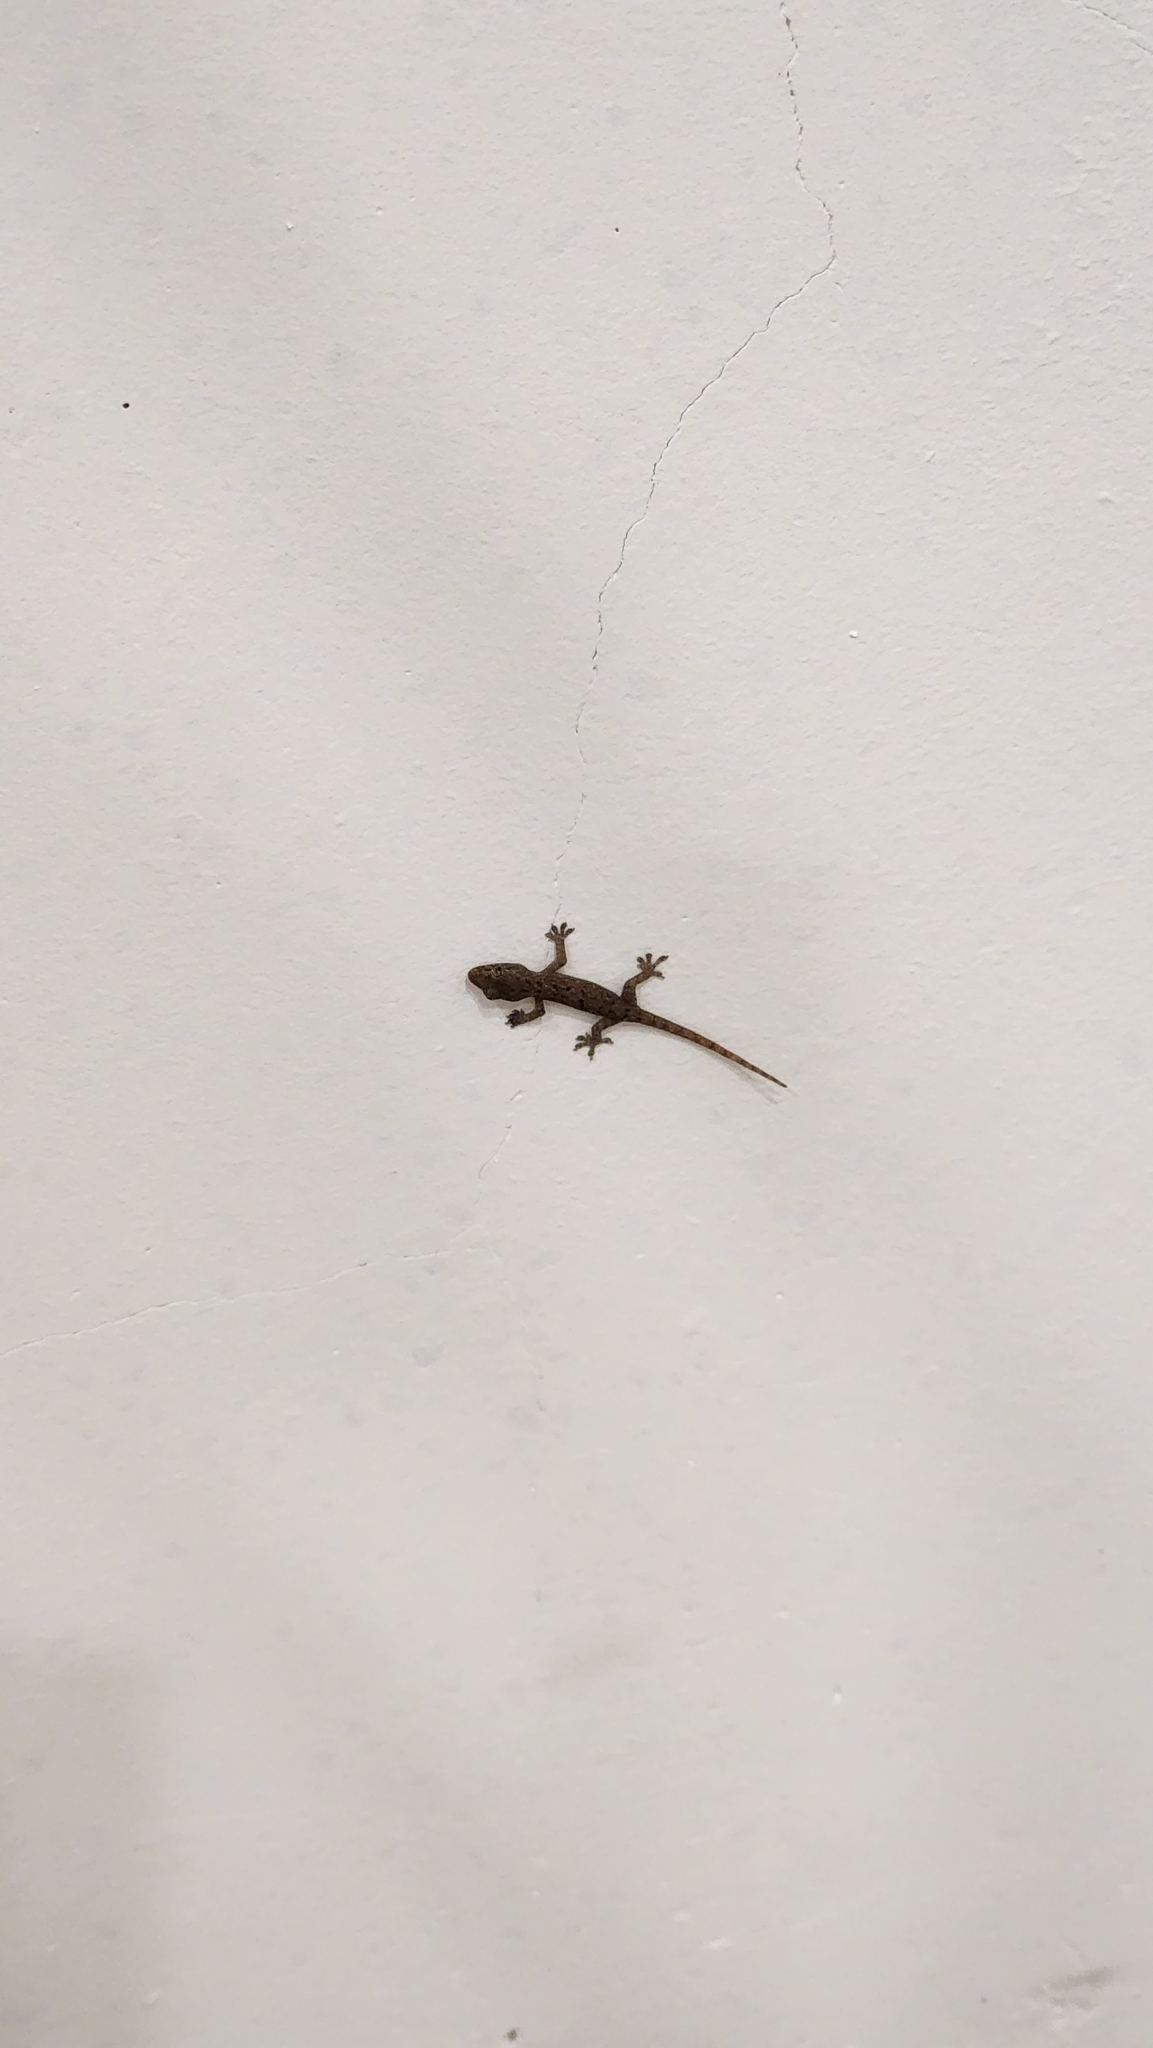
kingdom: Animalia
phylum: Chordata
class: Squamata
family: Gekkonidae
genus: Hemidactylus
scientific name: Hemidactylus frenatus
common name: Common house gecko
